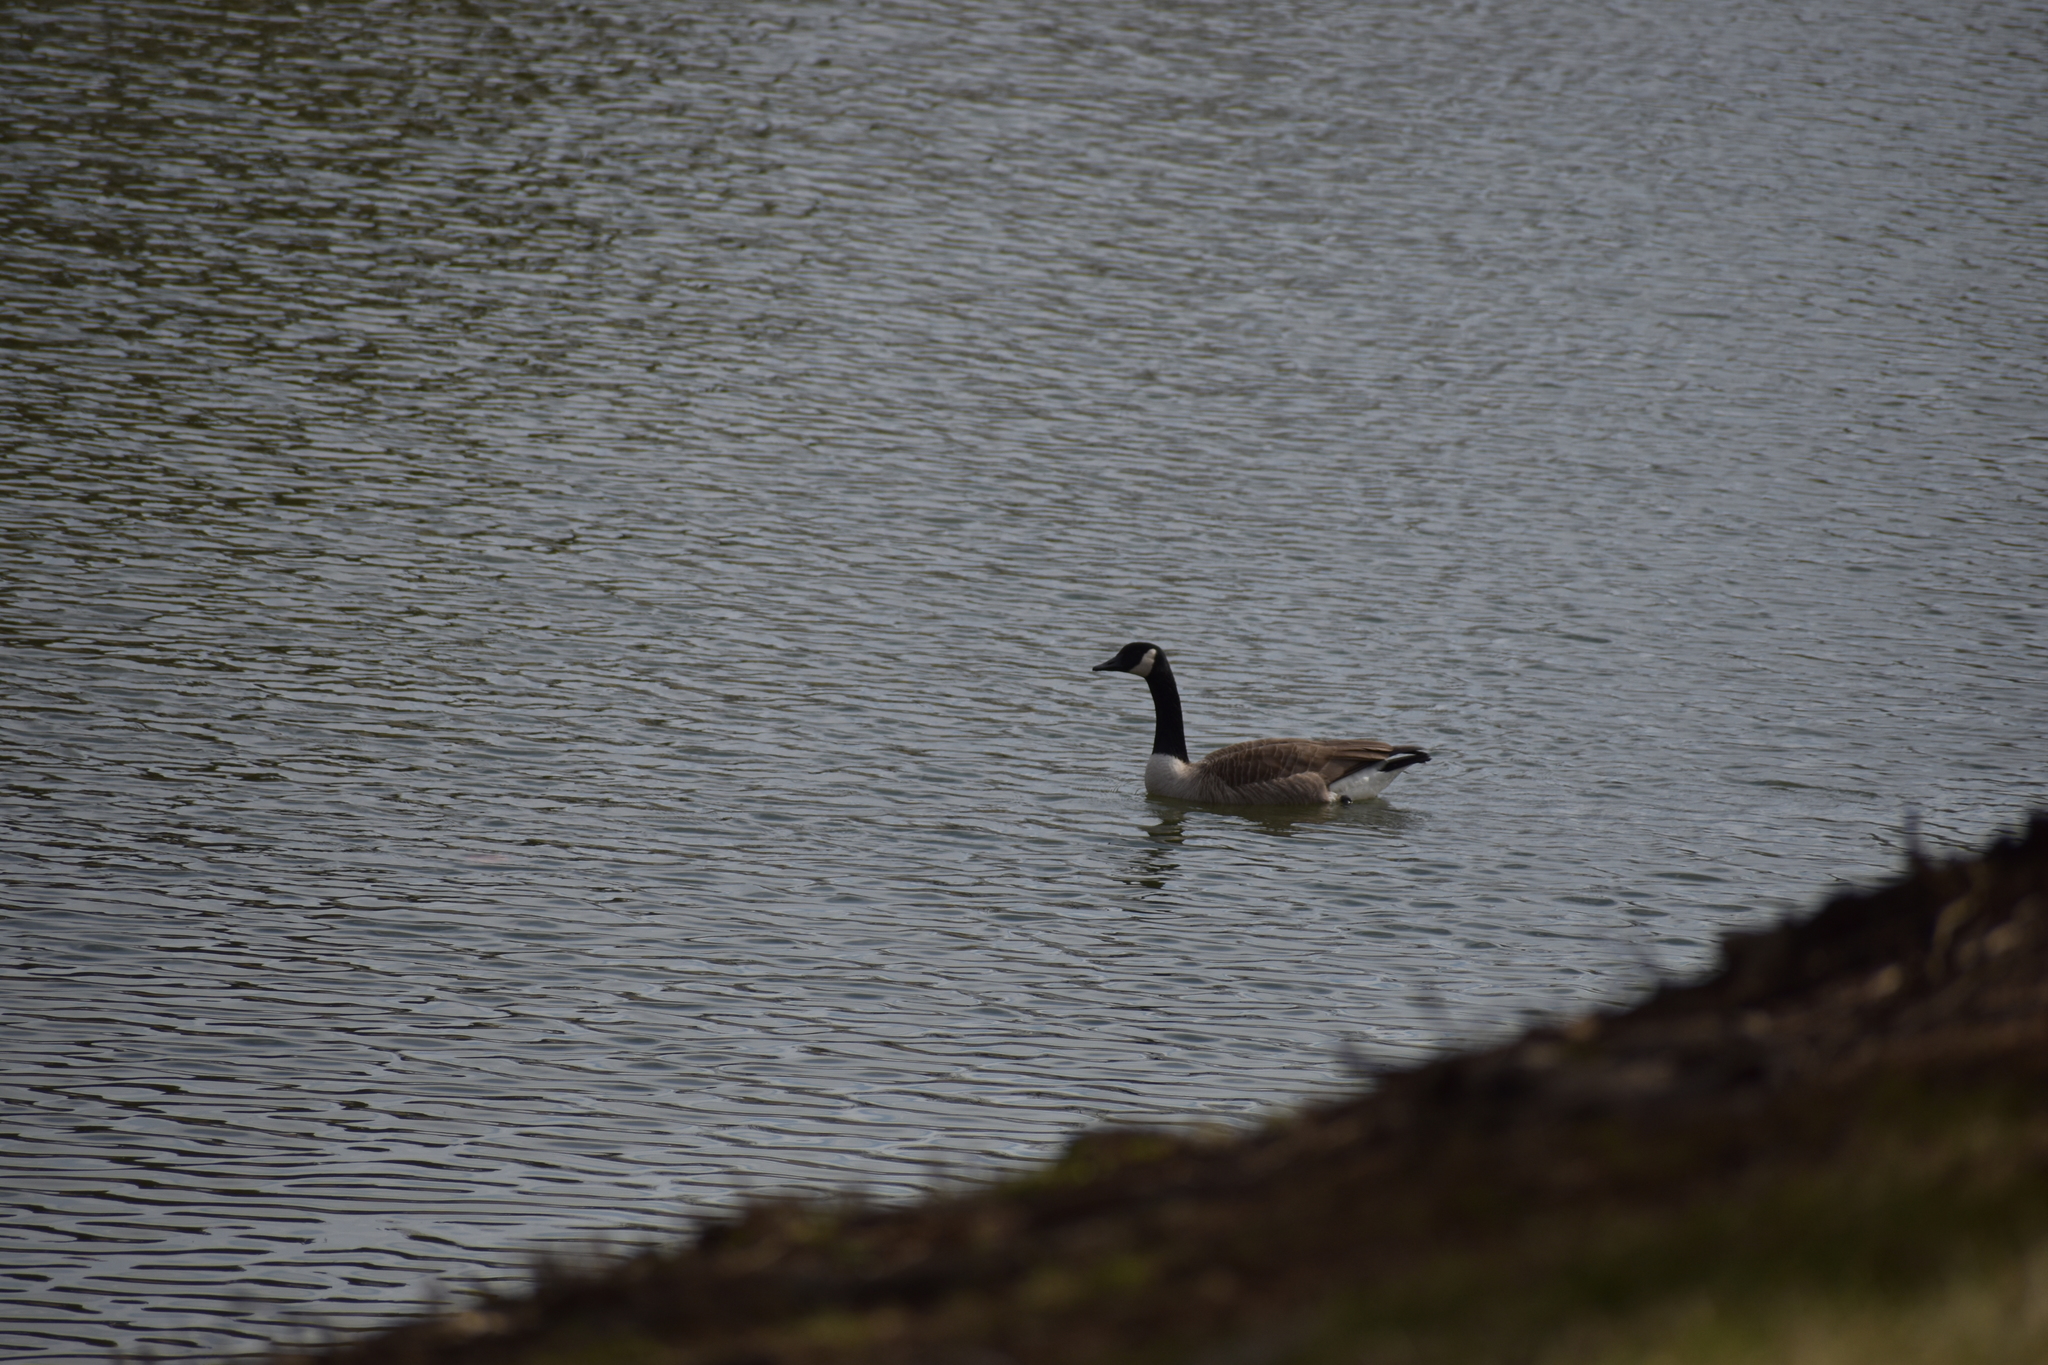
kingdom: Animalia
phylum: Chordata
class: Aves
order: Anseriformes
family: Anatidae
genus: Branta
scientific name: Branta canadensis
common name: Canada goose
